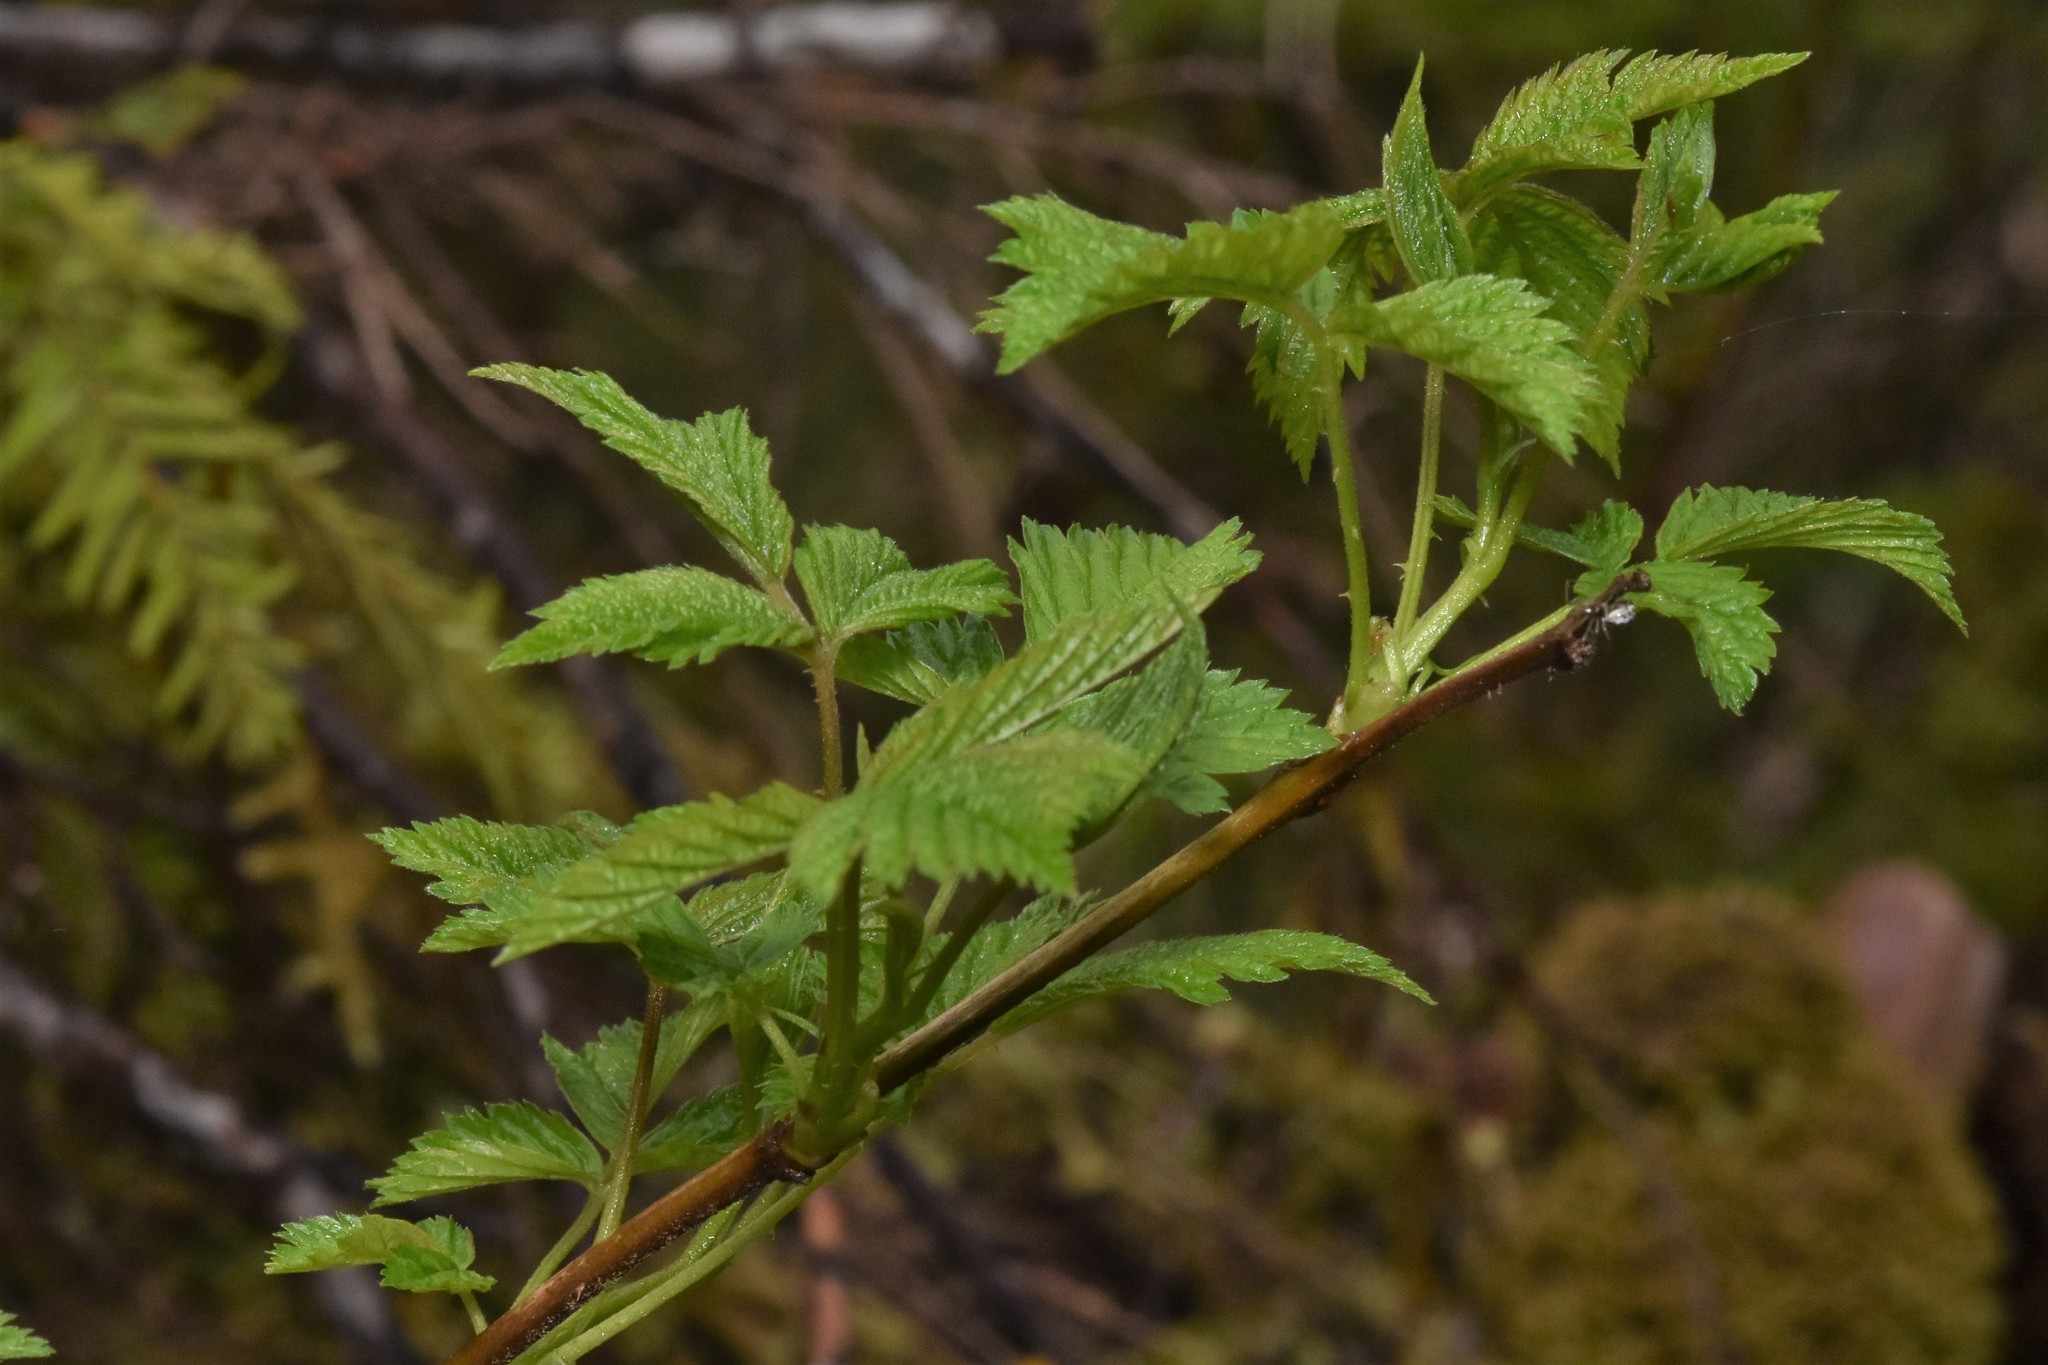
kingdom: Plantae
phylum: Tracheophyta
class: Magnoliopsida
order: Rosales
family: Rosaceae
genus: Rubus
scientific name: Rubus spectabilis
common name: Salmonberry
